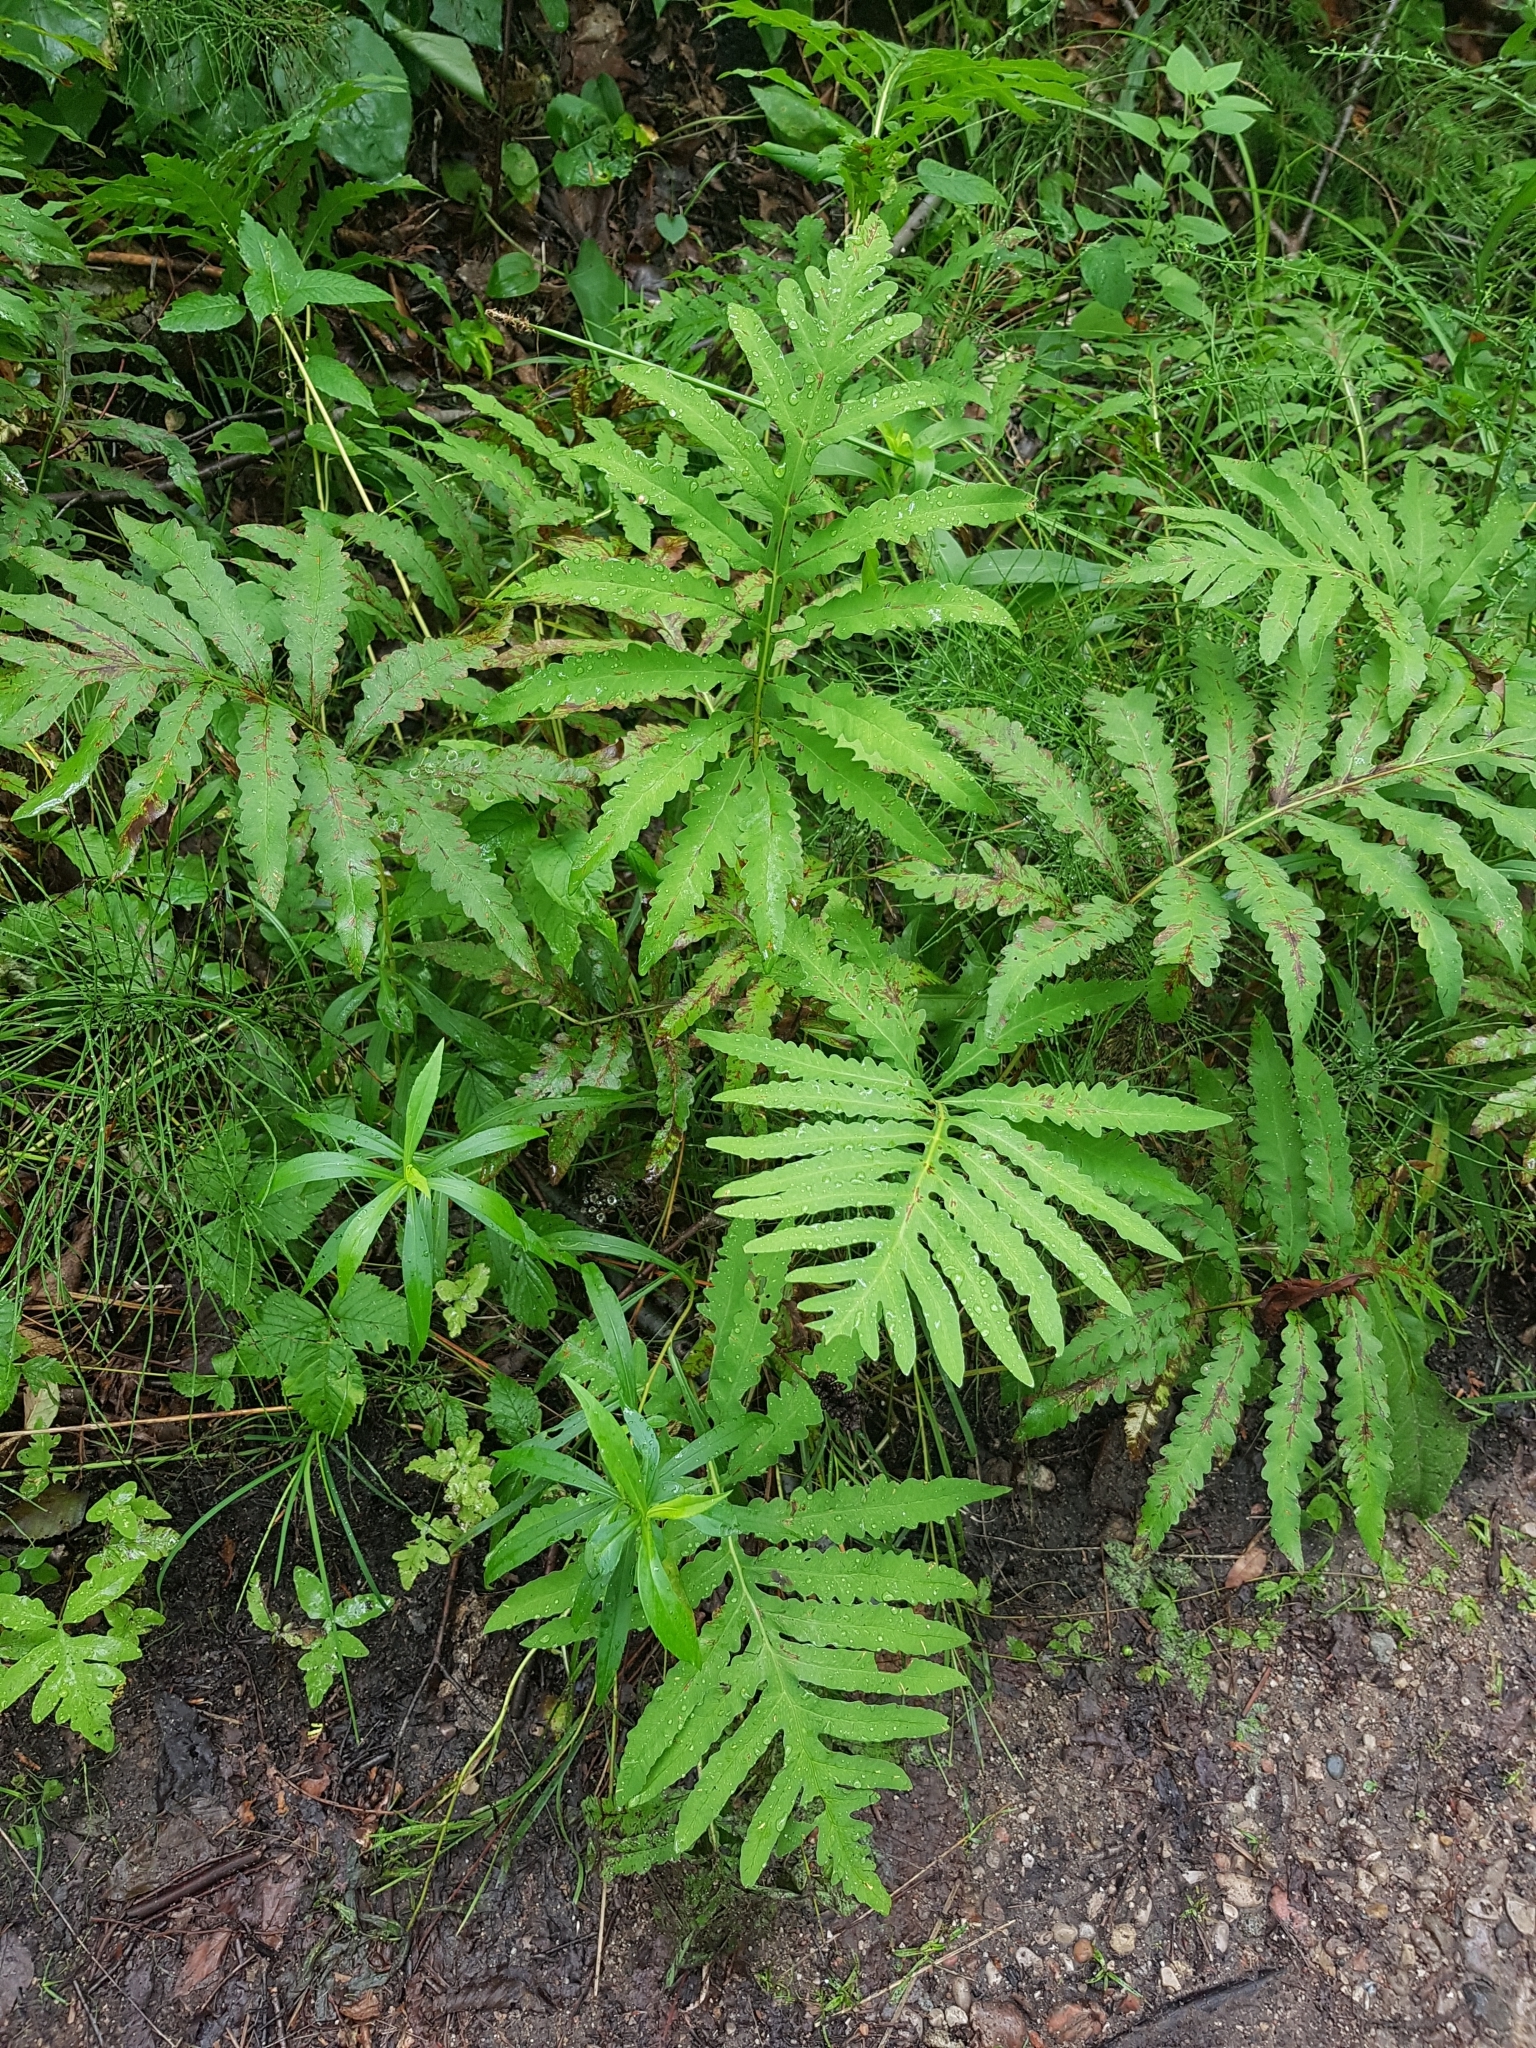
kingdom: Plantae
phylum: Tracheophyta
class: Polypodiopsida
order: Polypodiales
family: Onocleaceae
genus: Onoclea
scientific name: Onoclea sensibilis
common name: Sensitive fern
